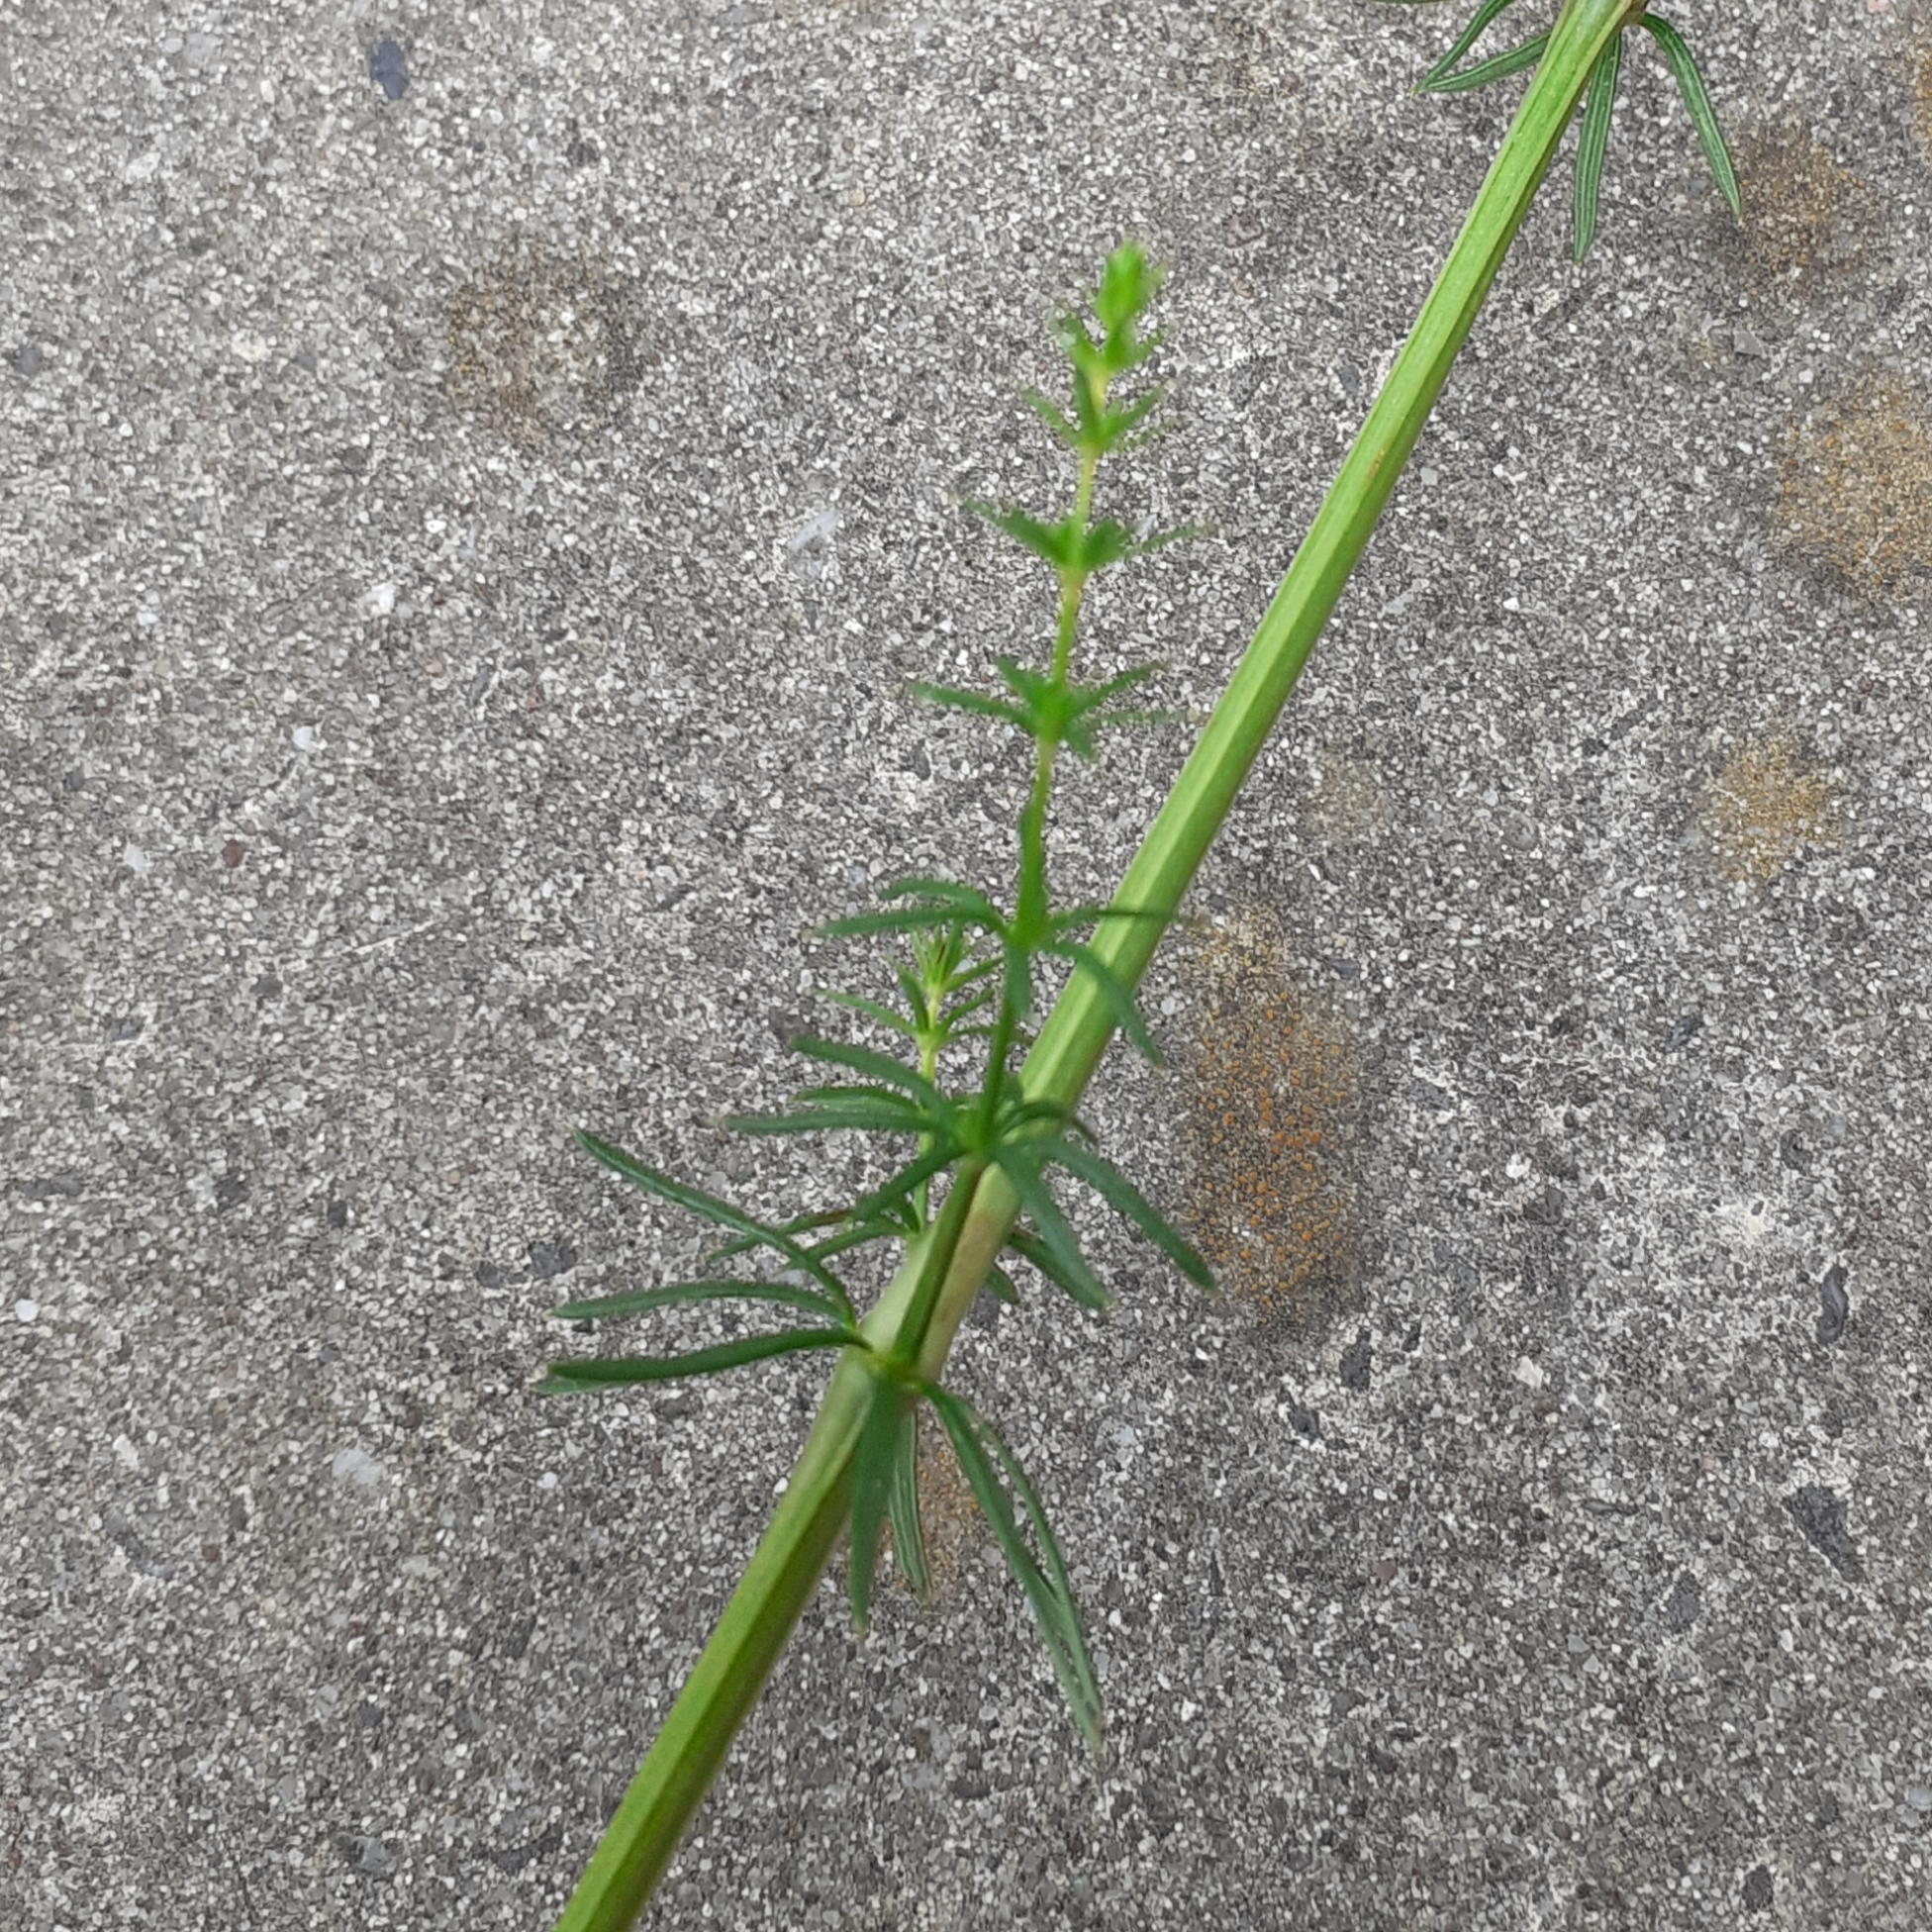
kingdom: Plantae
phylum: Tracheophyta
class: Magnoliopsida
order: Gentianales
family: Rubiaceae
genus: Galium
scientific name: Galium verum
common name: Lady's bedstraw
